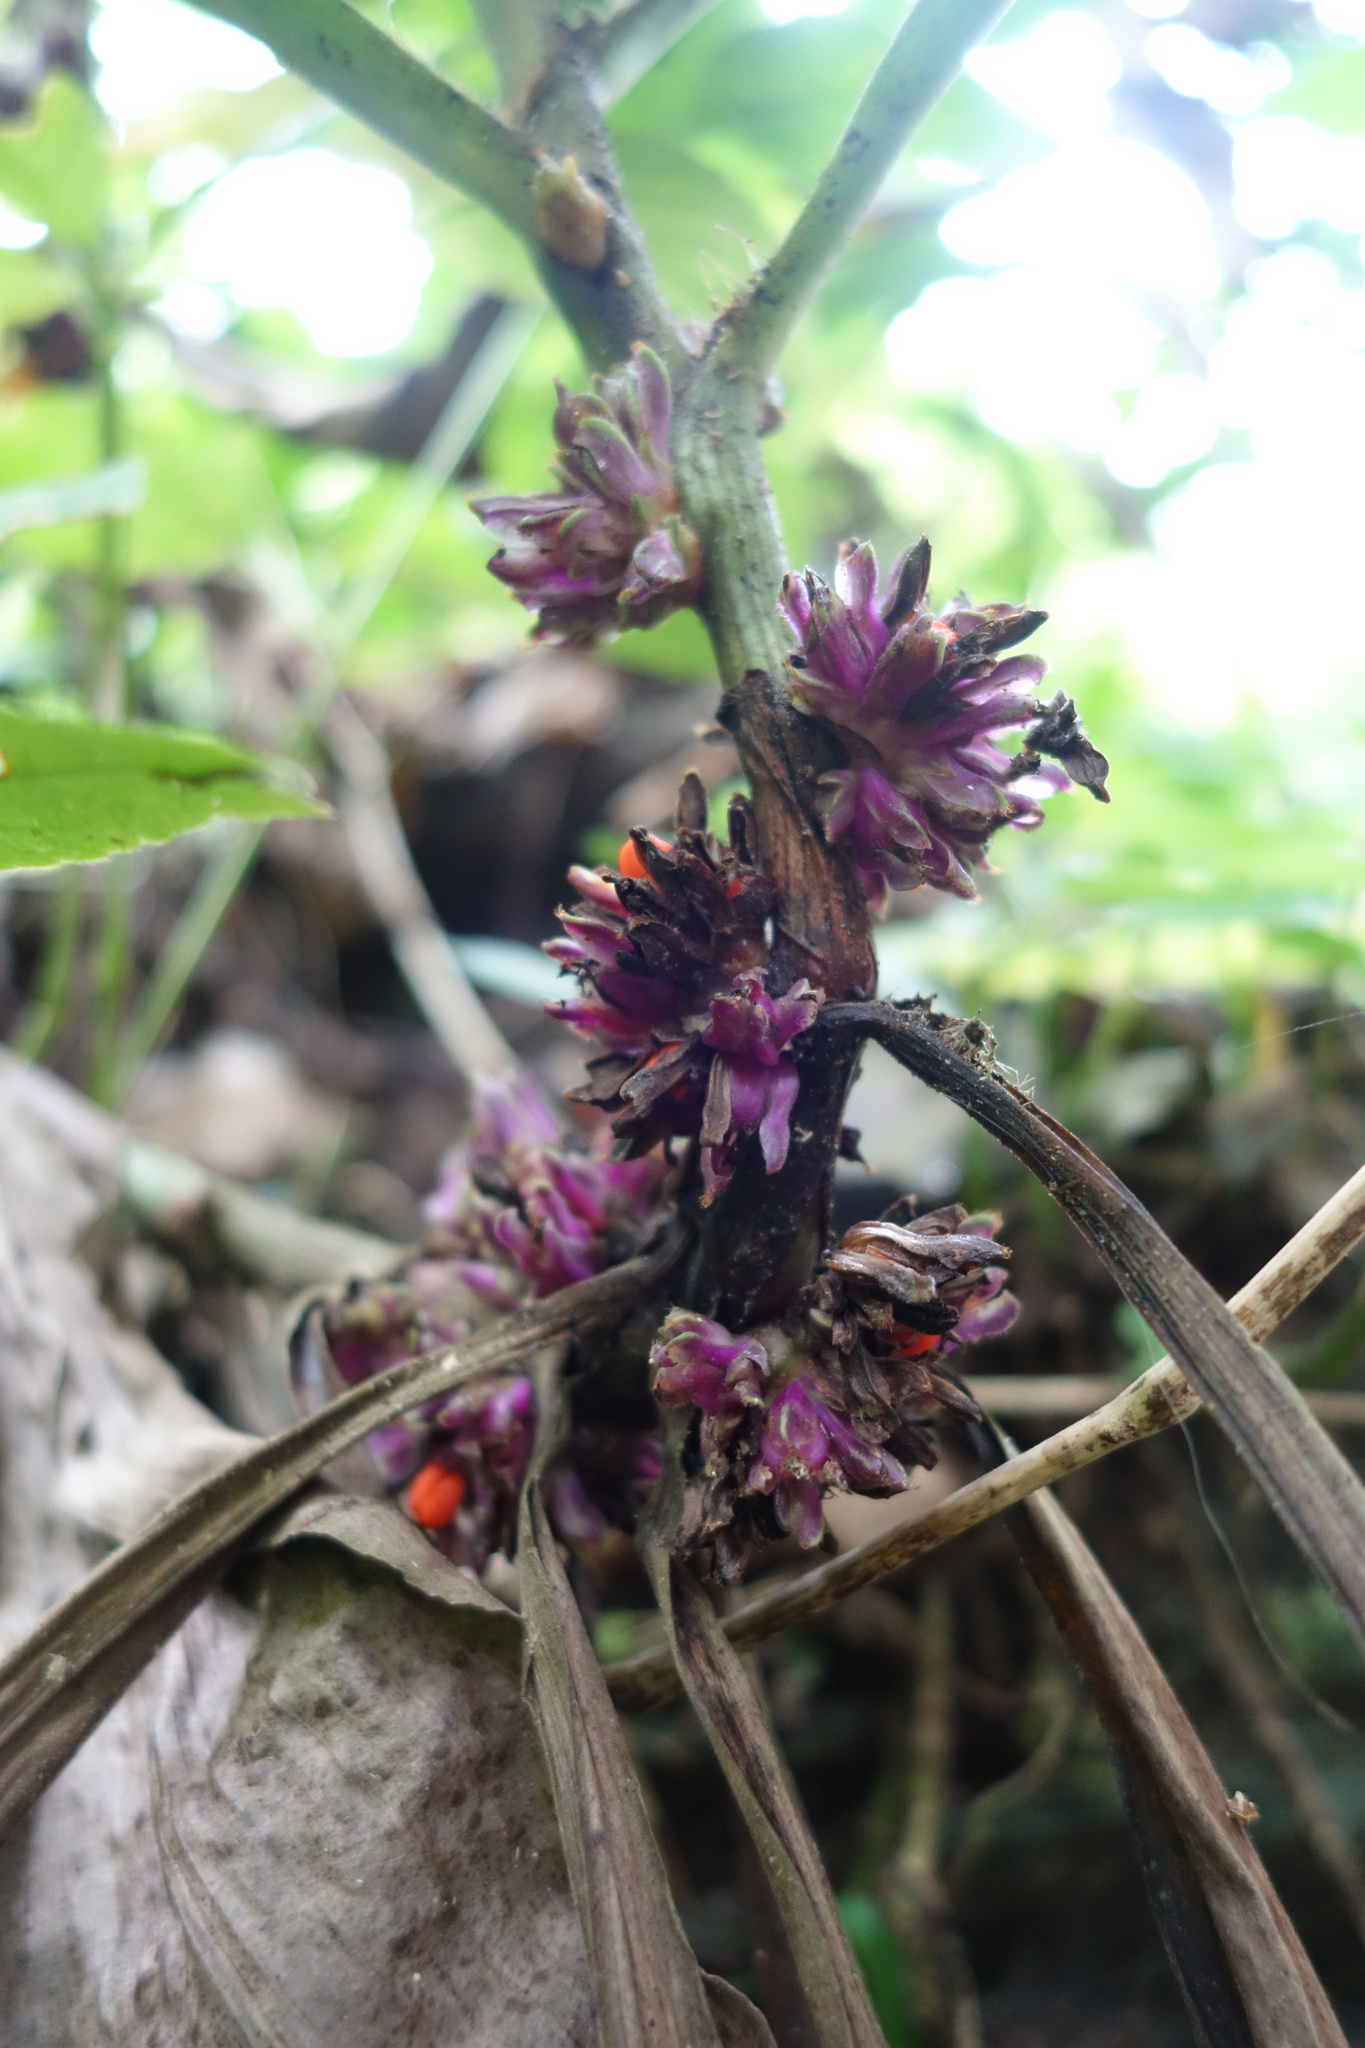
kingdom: Plantae
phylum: Tracheophyta
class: Liliopsida
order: Commelinales
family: Commelinaceae
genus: Amischotolype
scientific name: Amischotolype glabrata
